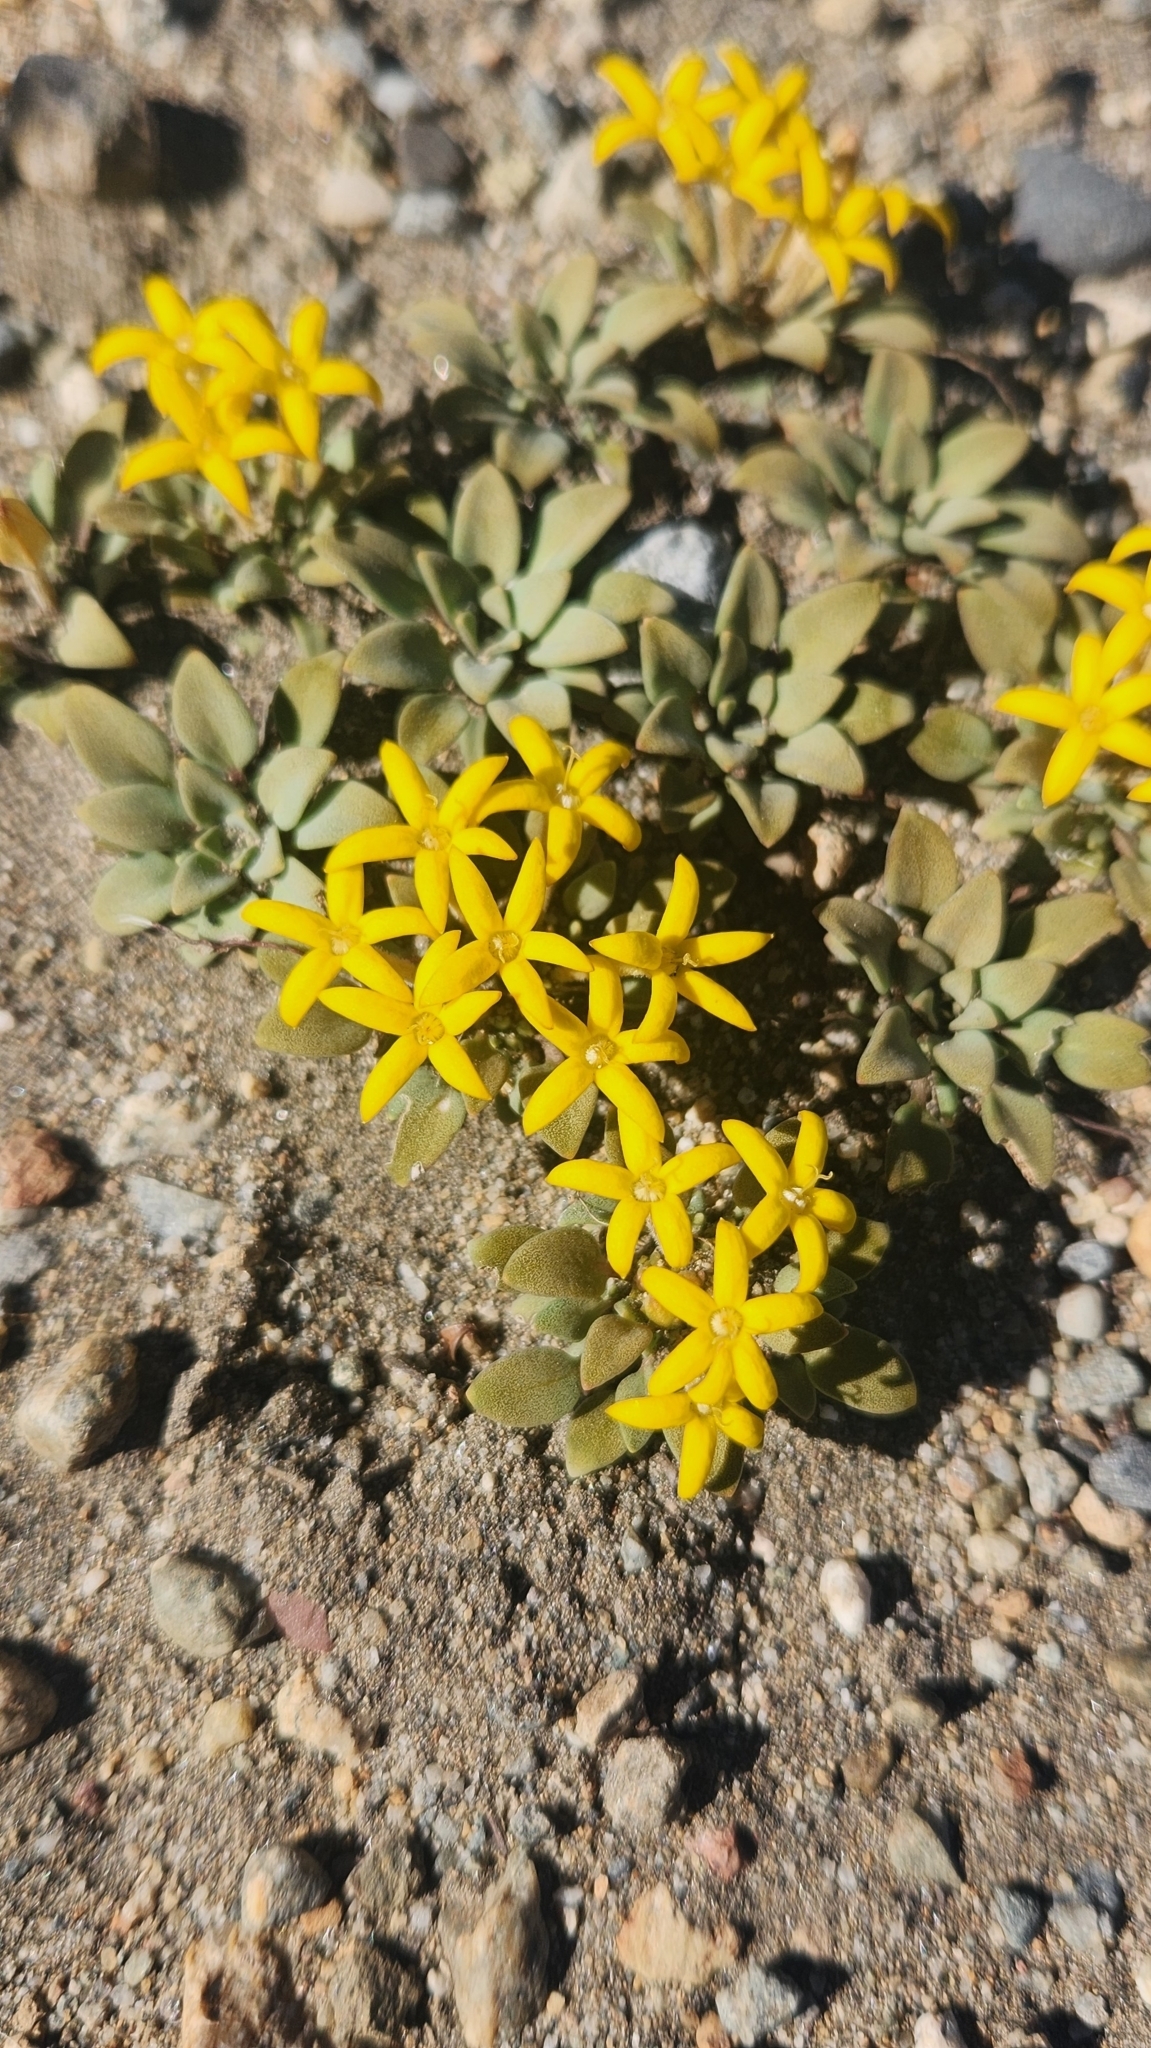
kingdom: Plantae
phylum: Tracheophyta
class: Magnoliopsida
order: Gentianales
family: Rubiaceae
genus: Oreopolus
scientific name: Oreopolus glacialis
